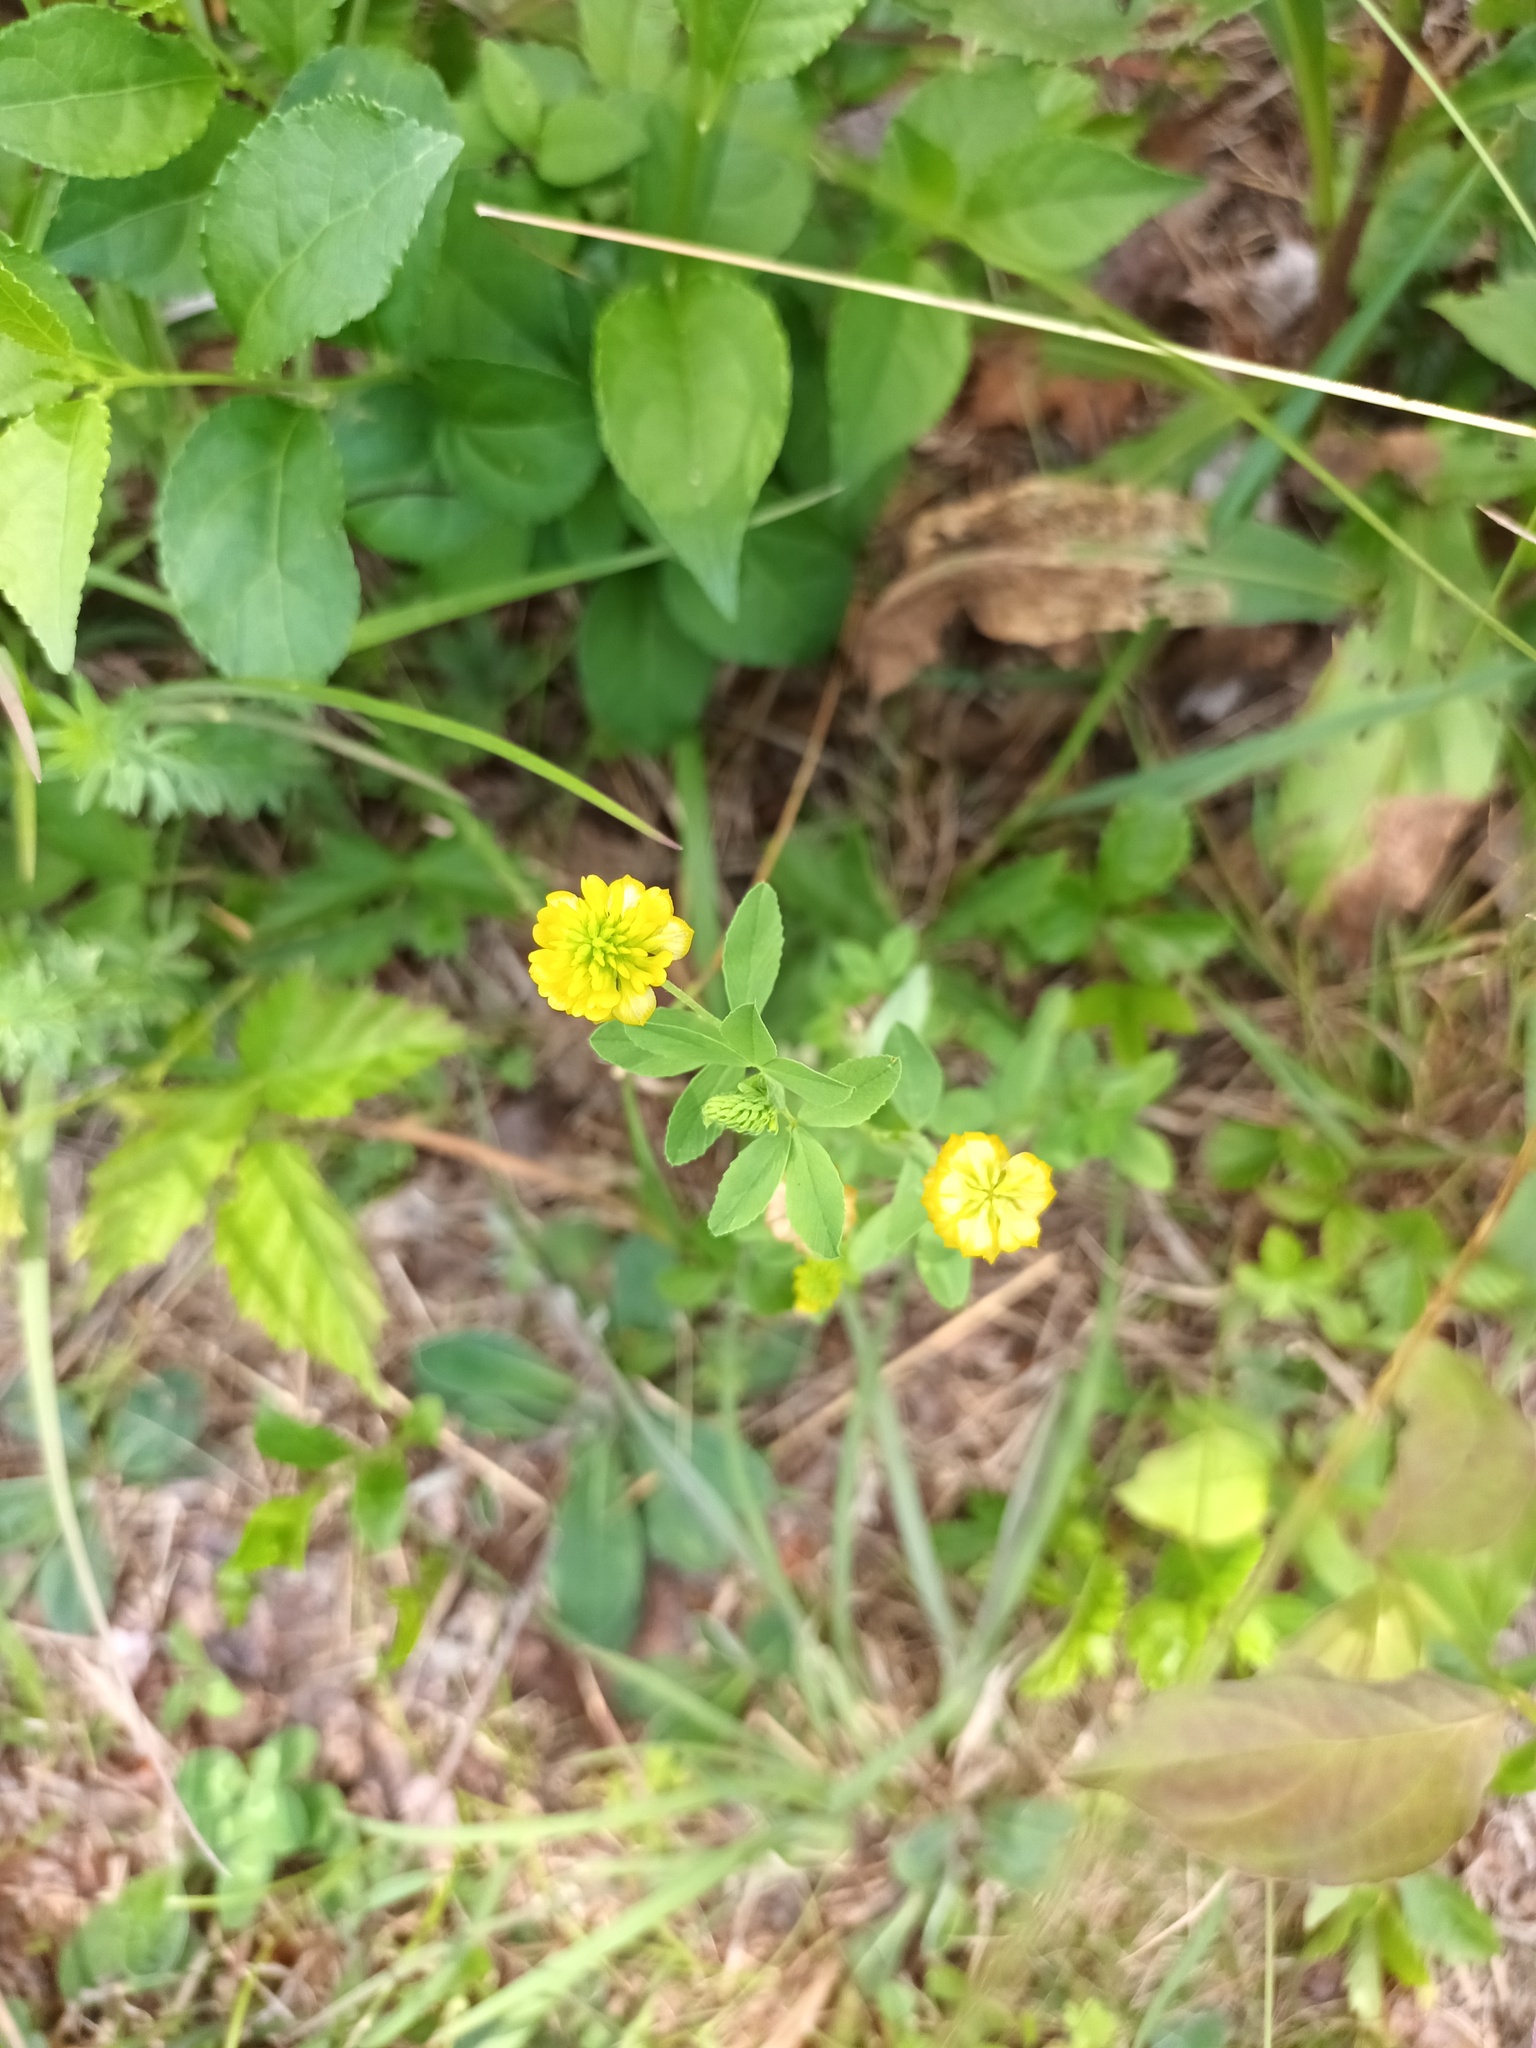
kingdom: Plantae
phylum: Tracheophyta
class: Magnoliopsida
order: Fabales
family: Fabaceae
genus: Trifolium
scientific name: Trifolium aureum
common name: Golden clover
